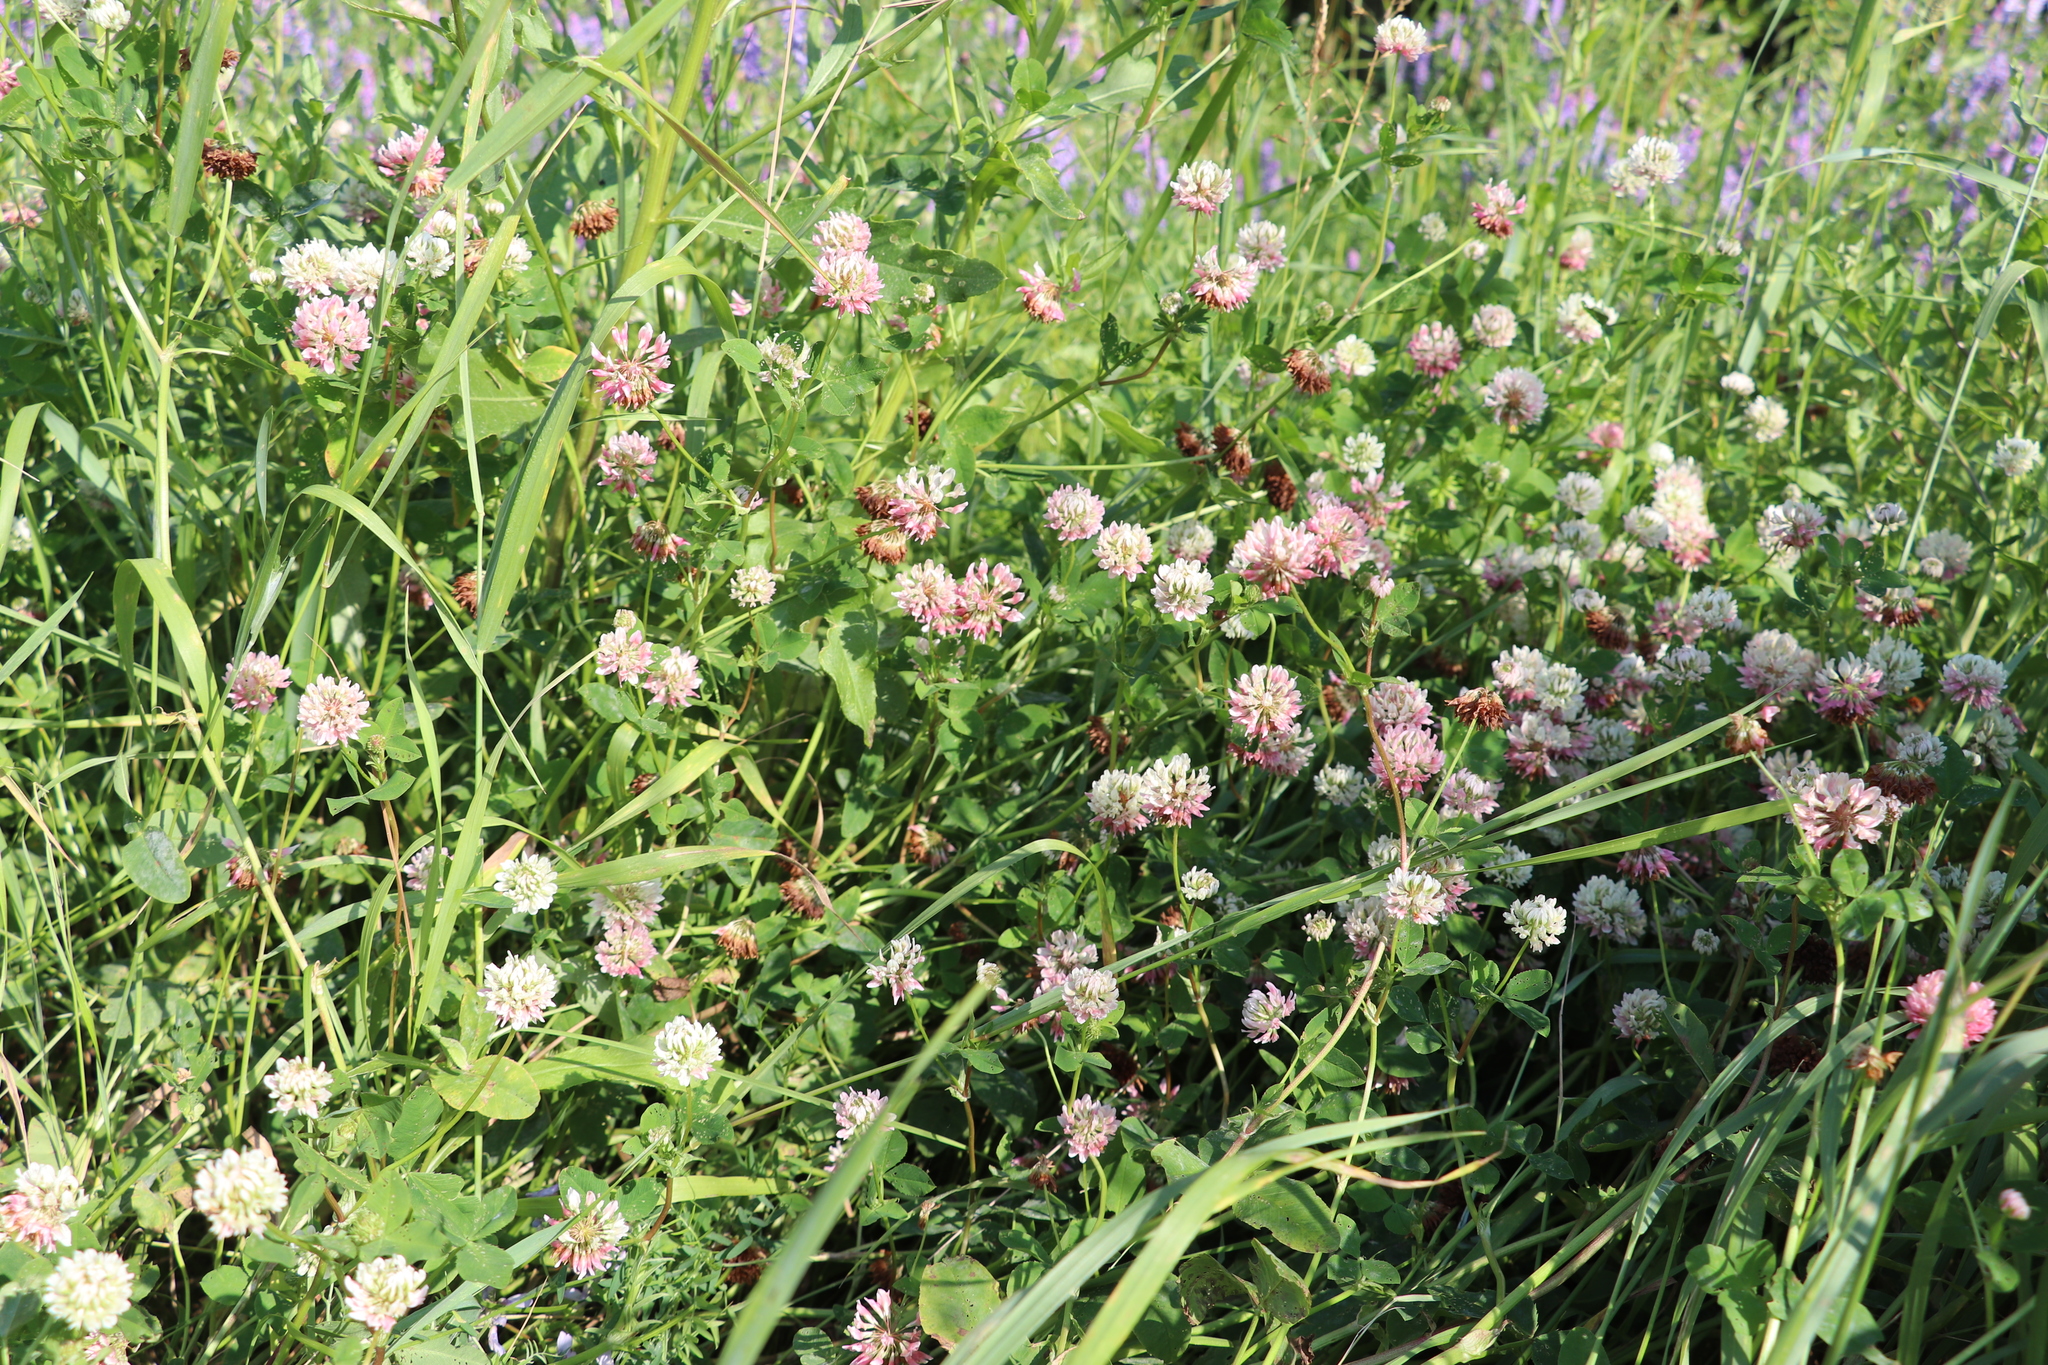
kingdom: Plantae
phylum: Tracheophyta
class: Magnoliopsida
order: Fabales
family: Fabaceae
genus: Trifolium
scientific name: Trifolium hybridum
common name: Alsike clover
